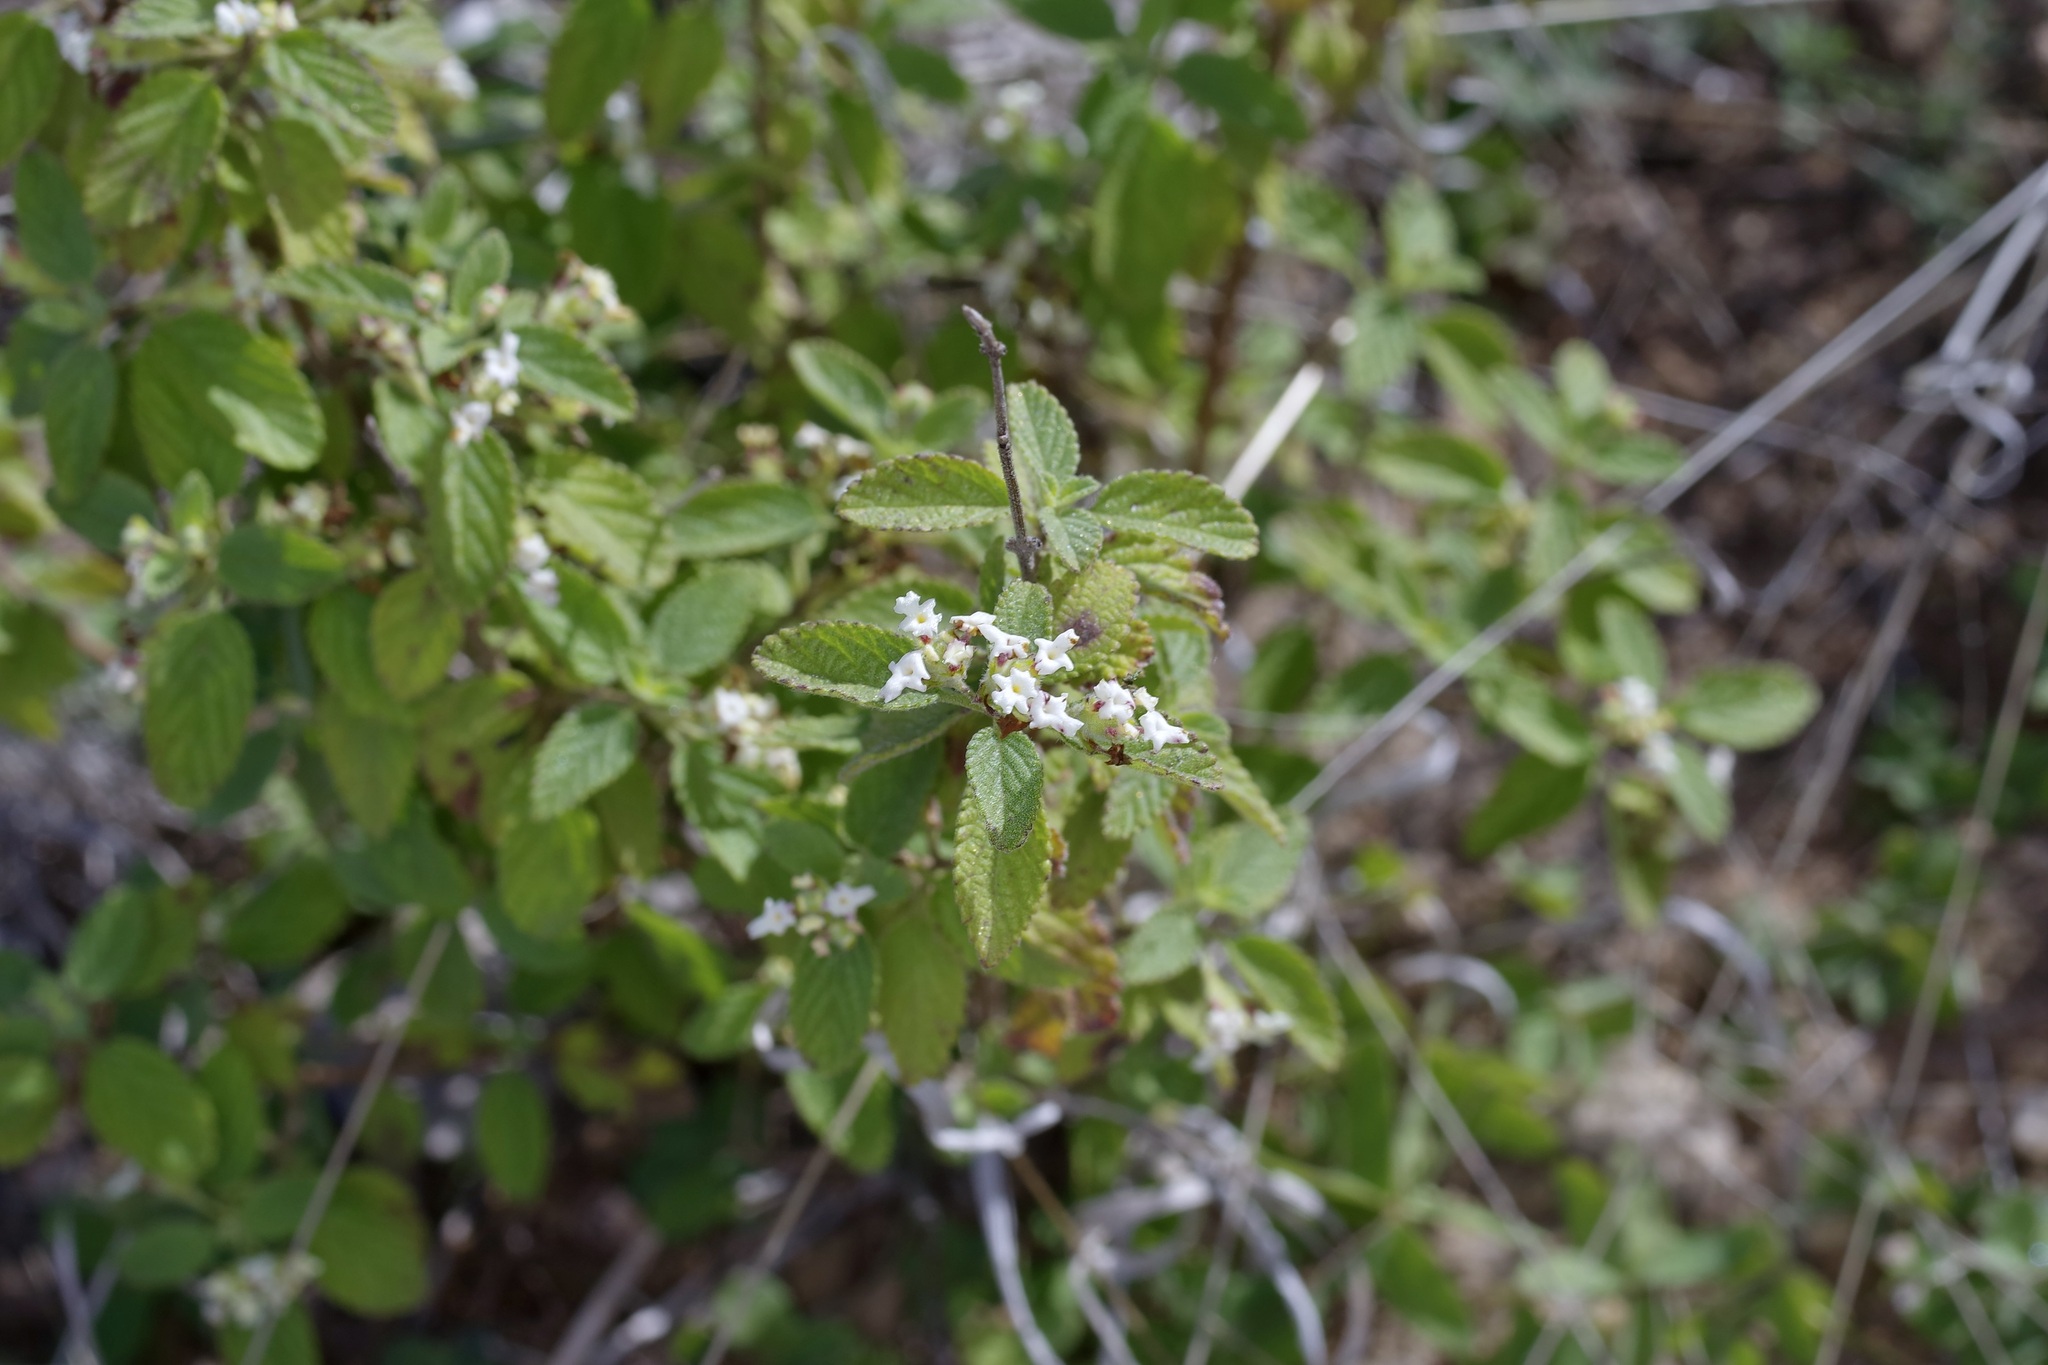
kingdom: Plantae
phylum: Tracheophyta
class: Magnoliopsida
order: Lamiales
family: Verbenaceae
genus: Lippia
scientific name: Lippia origanoides
